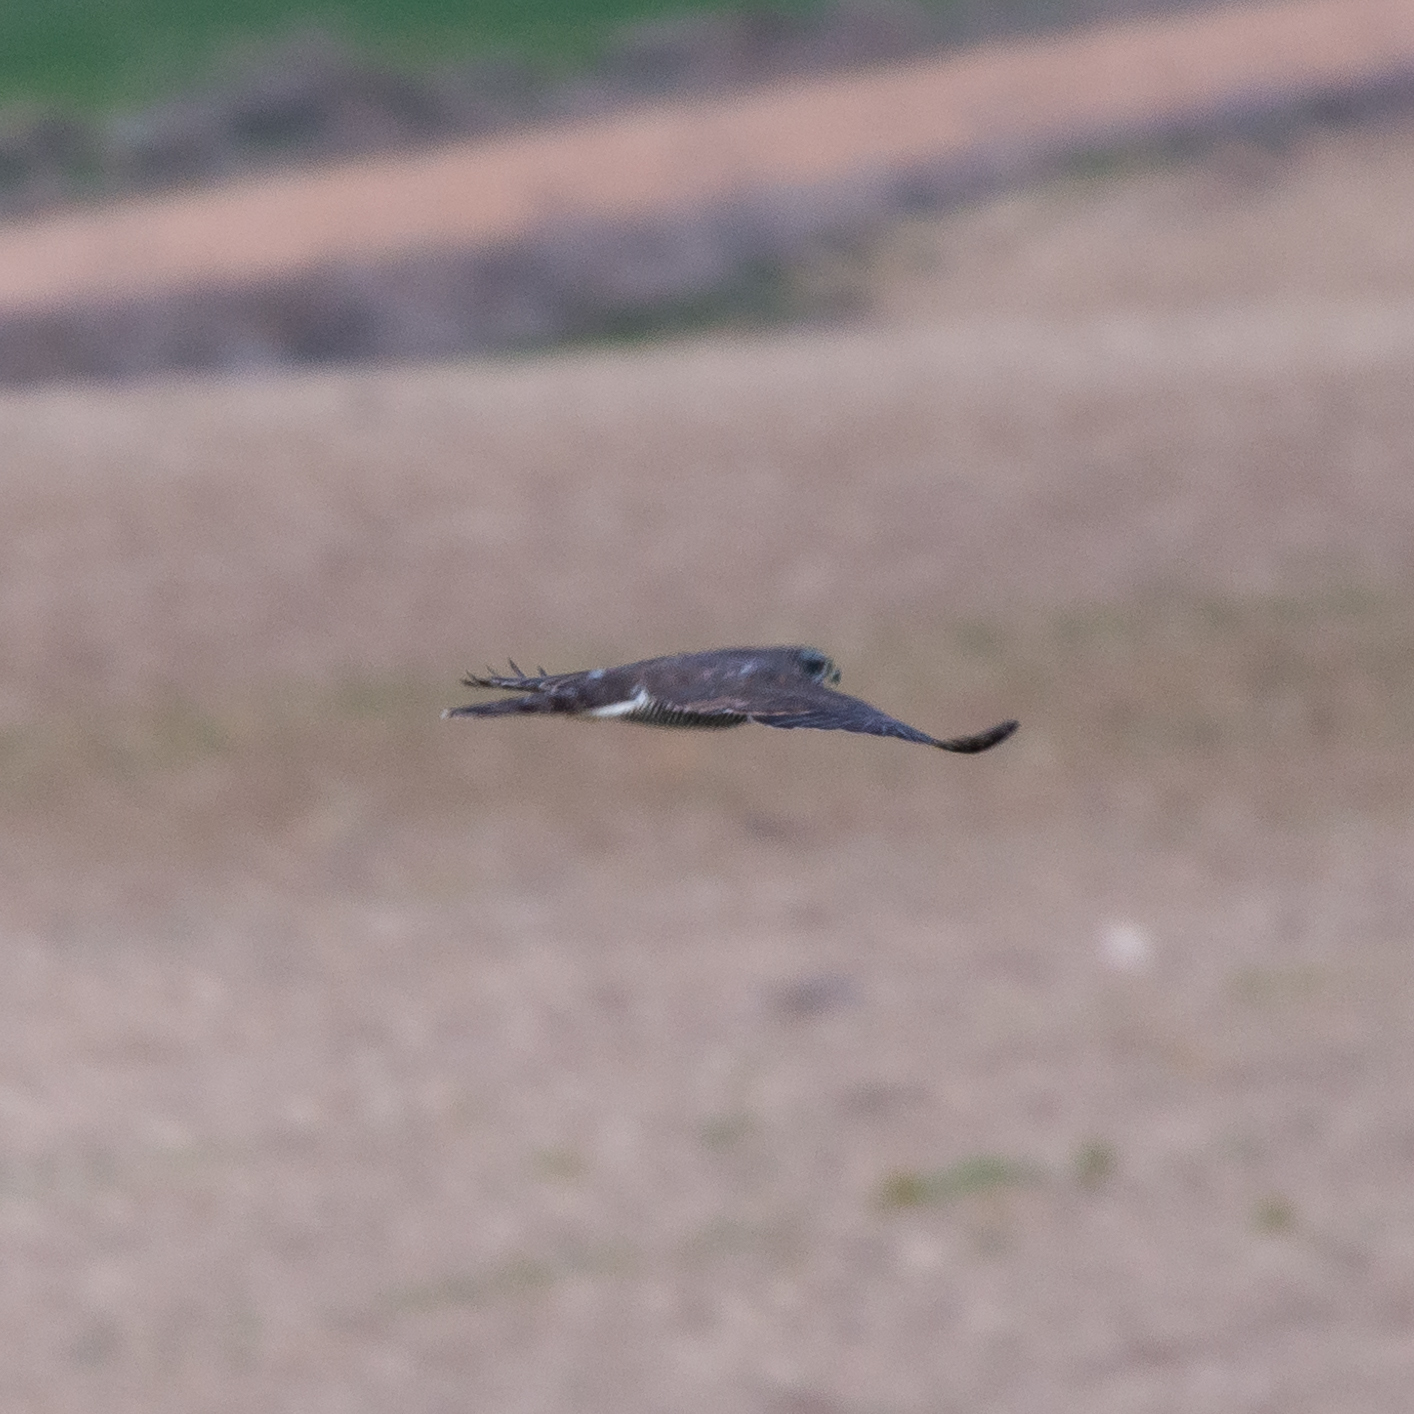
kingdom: Animalia
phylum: Chordata
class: Aves
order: Accipitriformes
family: Accipitridae
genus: Accipiter
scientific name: Accipiter gentilis
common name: Northern goshawk
